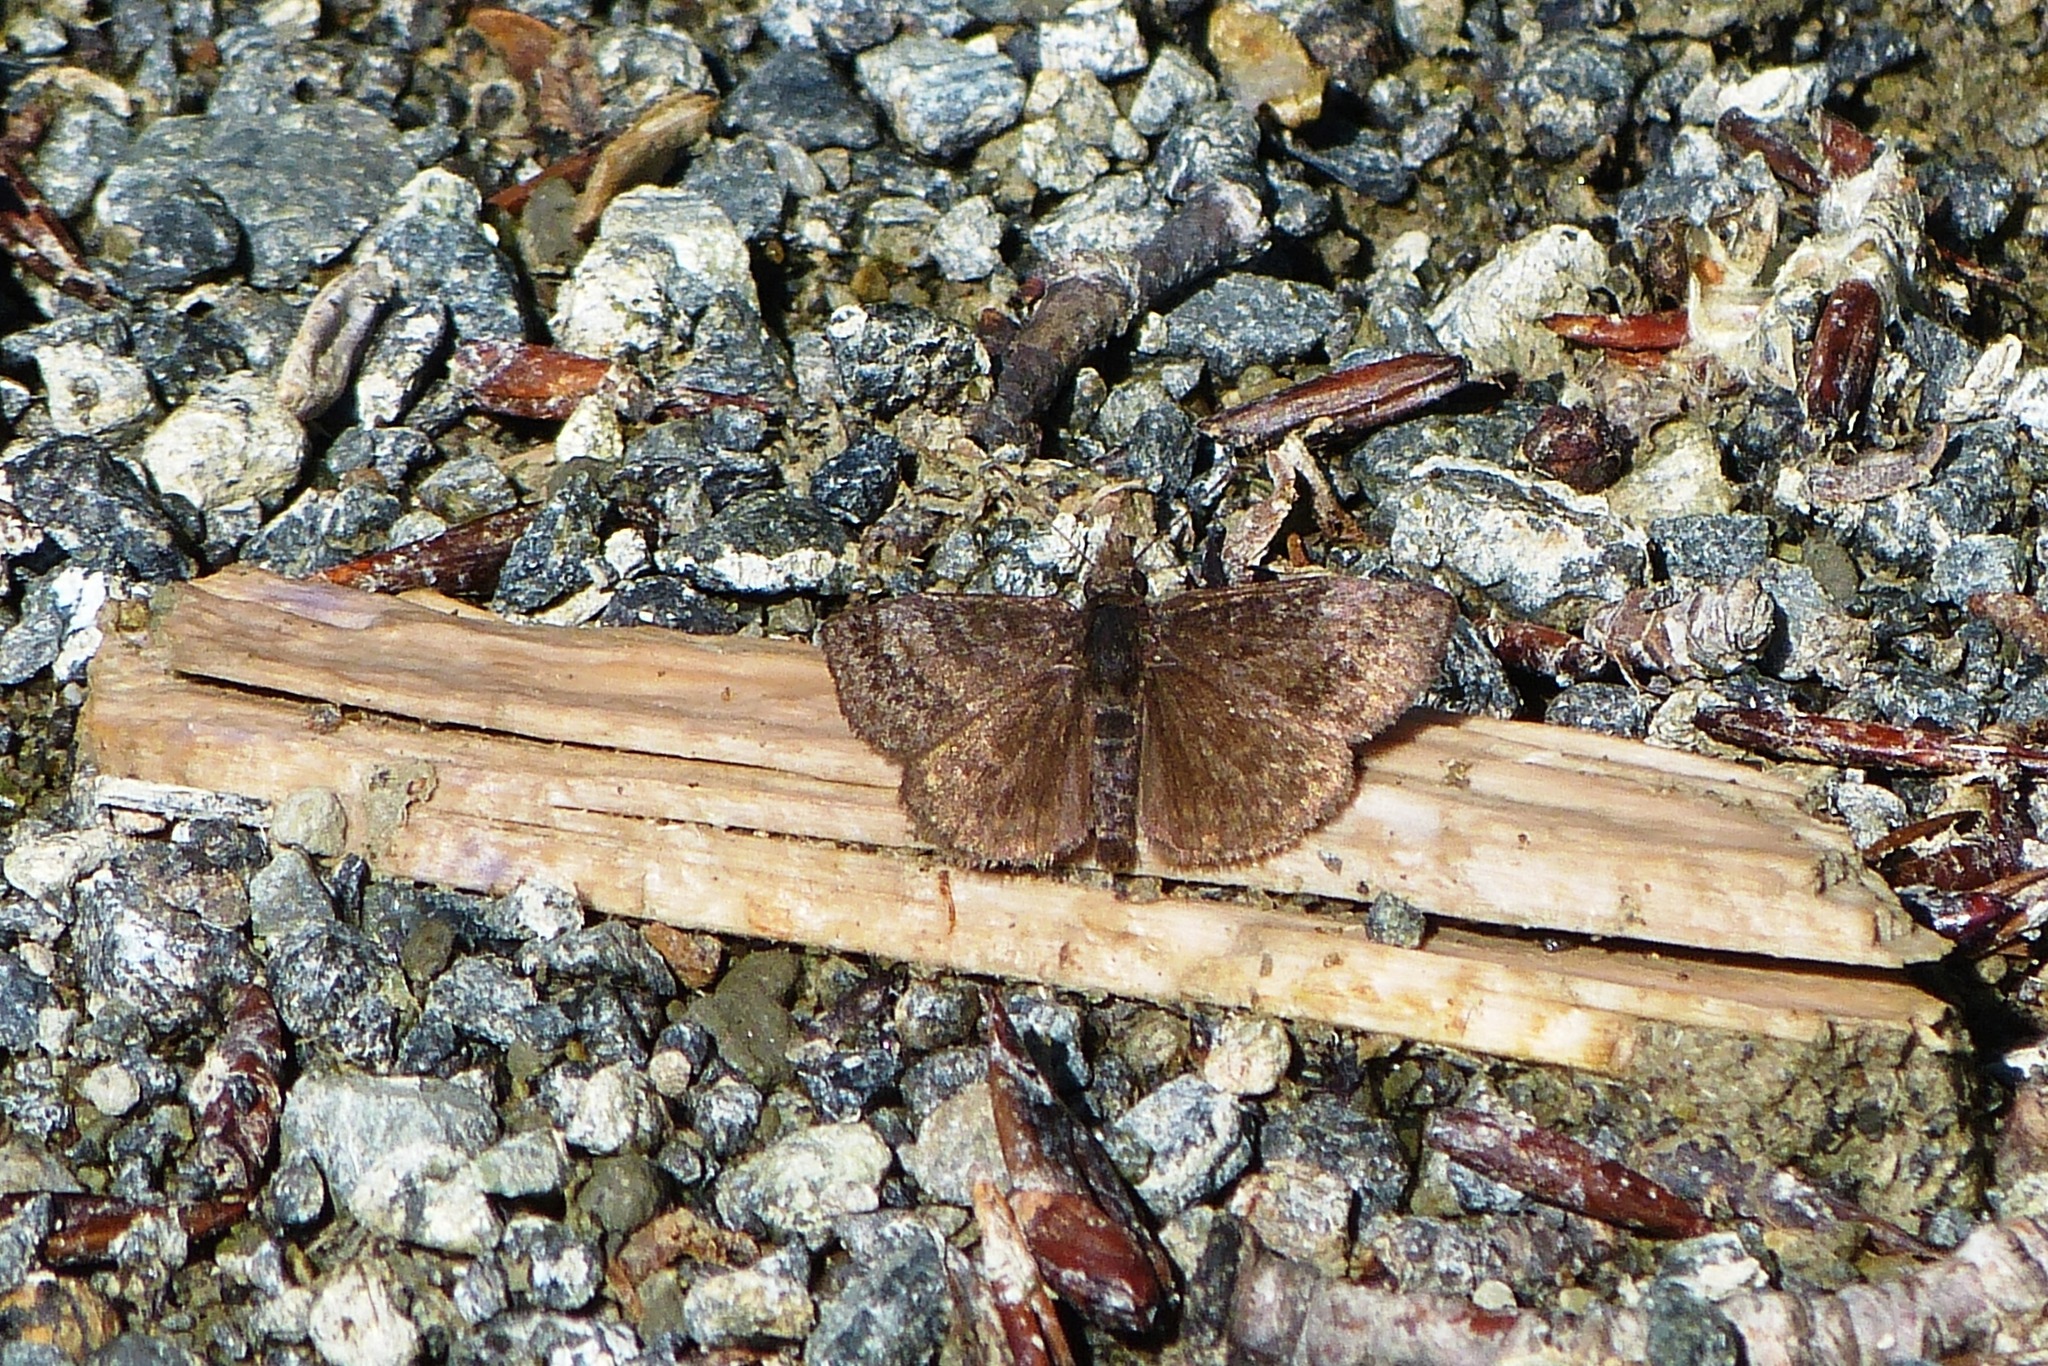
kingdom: Animalia
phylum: Arthropoda
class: Insecta
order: Lepidoptera
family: Hesperiidae
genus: Erynnis
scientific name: Erynnis icelus
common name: Dreamy duskywing
